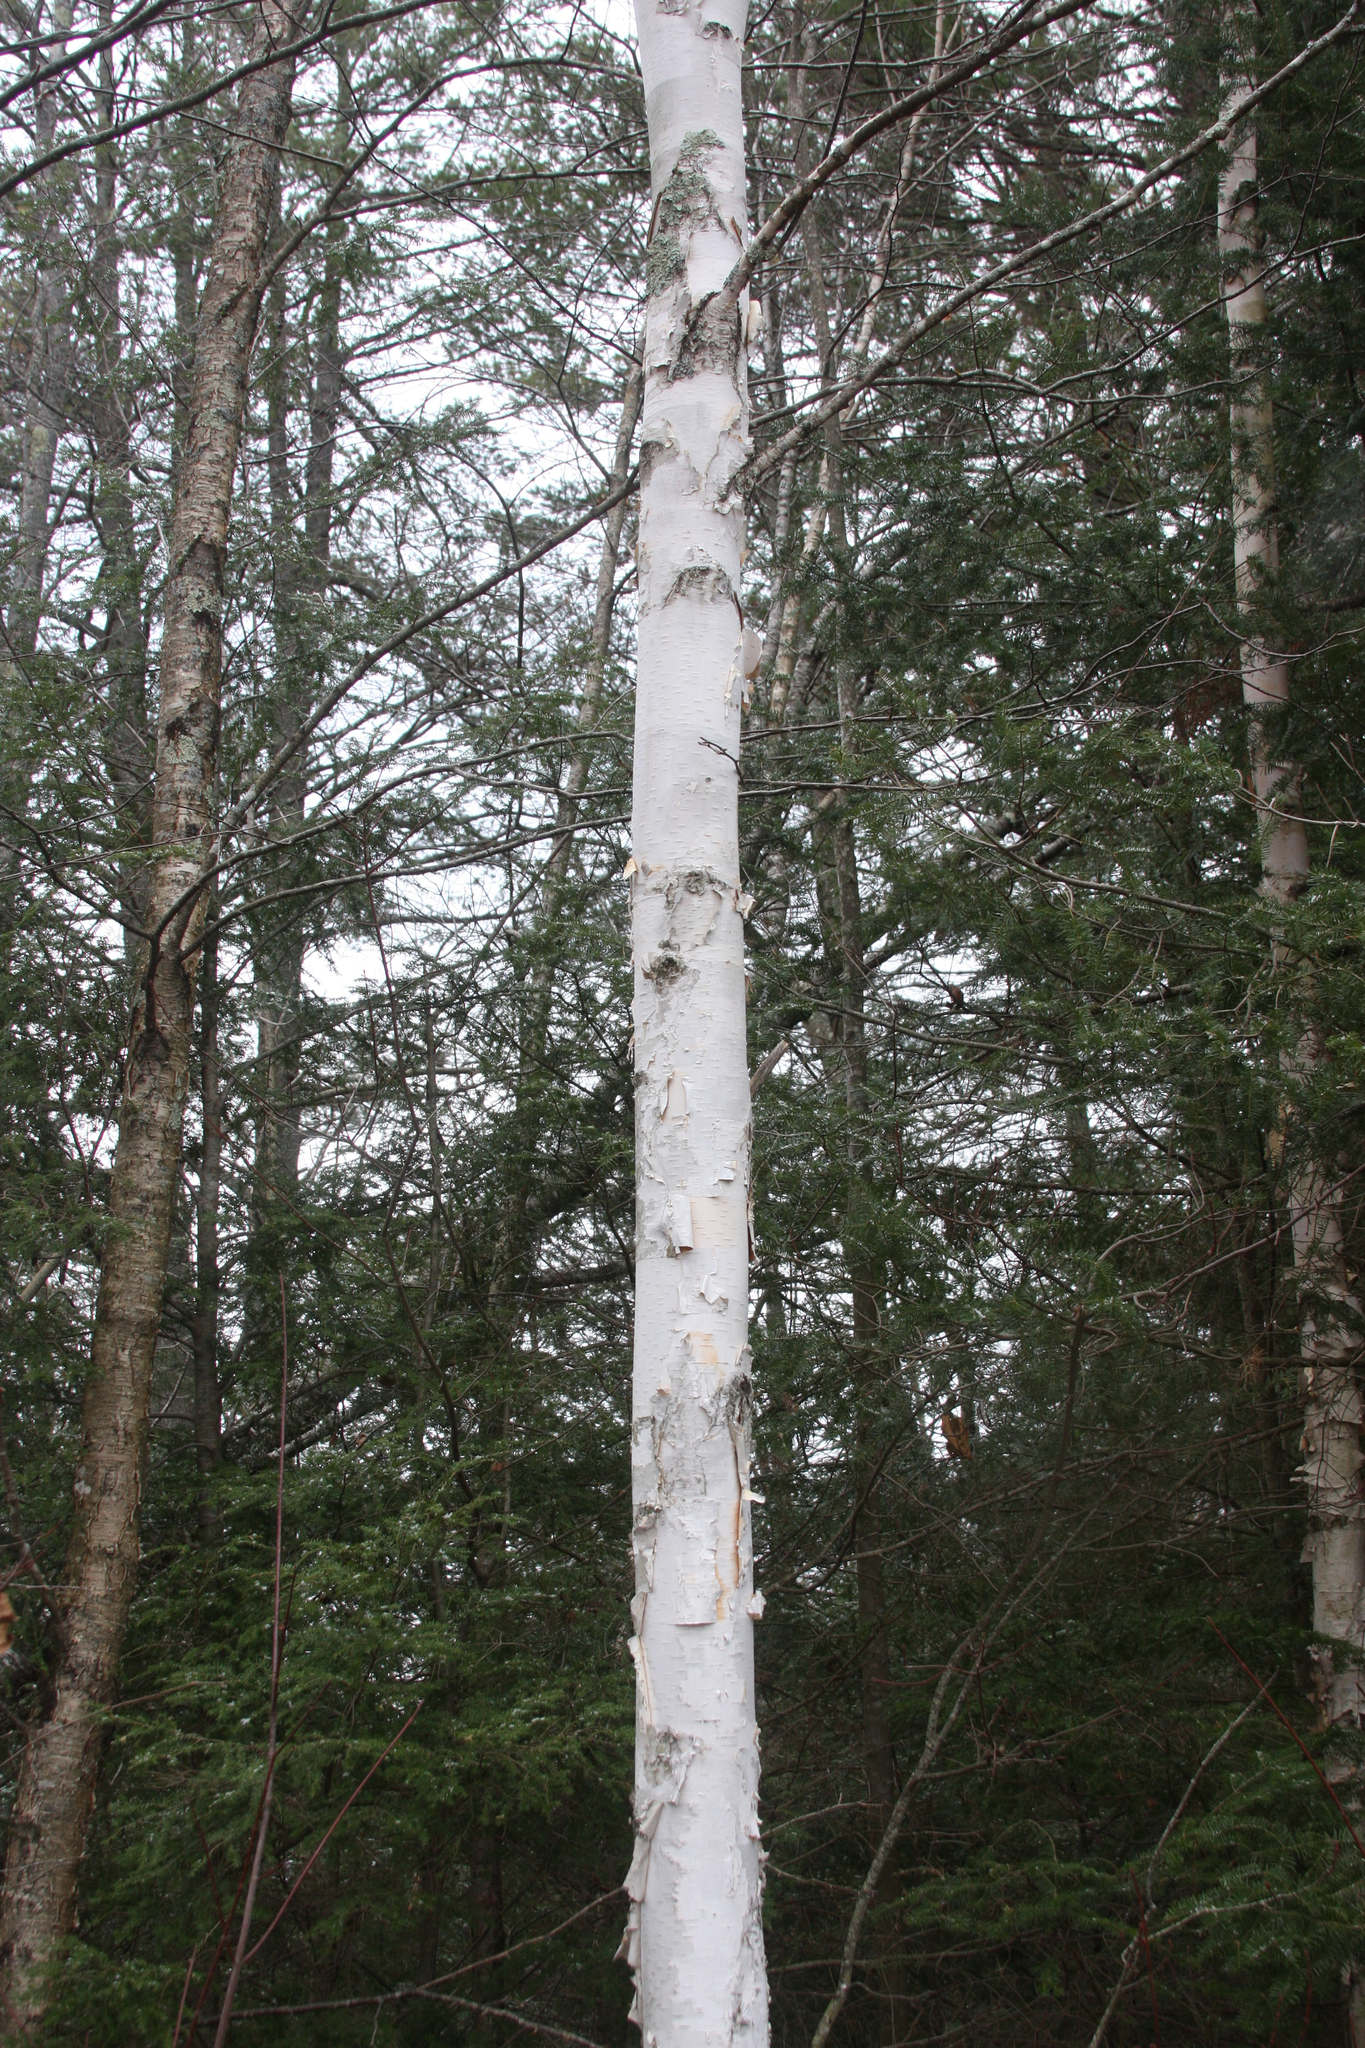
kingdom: Plantae
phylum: Tracheophyta
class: Magnoliopsida
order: Fagales
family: Betulaceae
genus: Betula
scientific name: Betula papyrifera
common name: Paper birch
